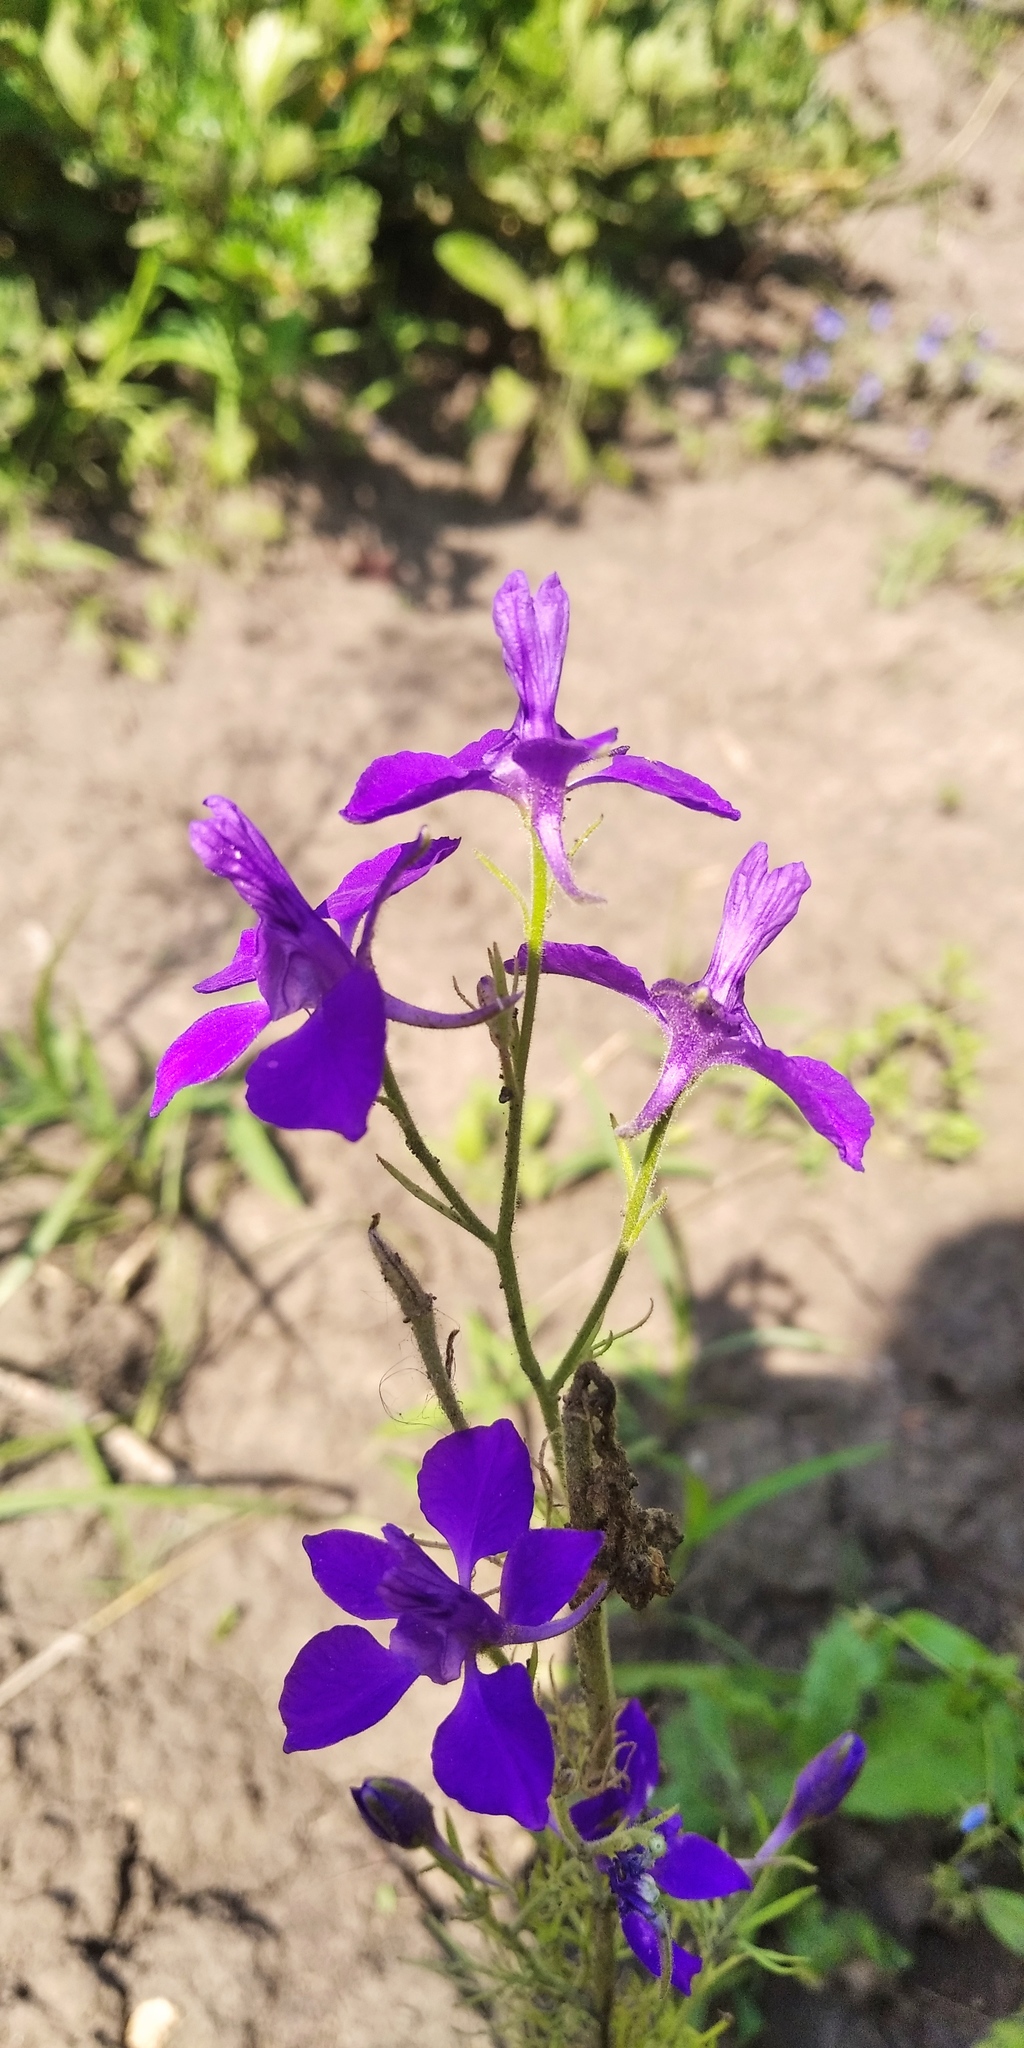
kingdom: Plantae
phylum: Tracheophyta
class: Magnoliopsida
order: Ranunculales
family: Ranunculaceae
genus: Delphinium
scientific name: Delphinium consolida
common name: Branching larkspur
